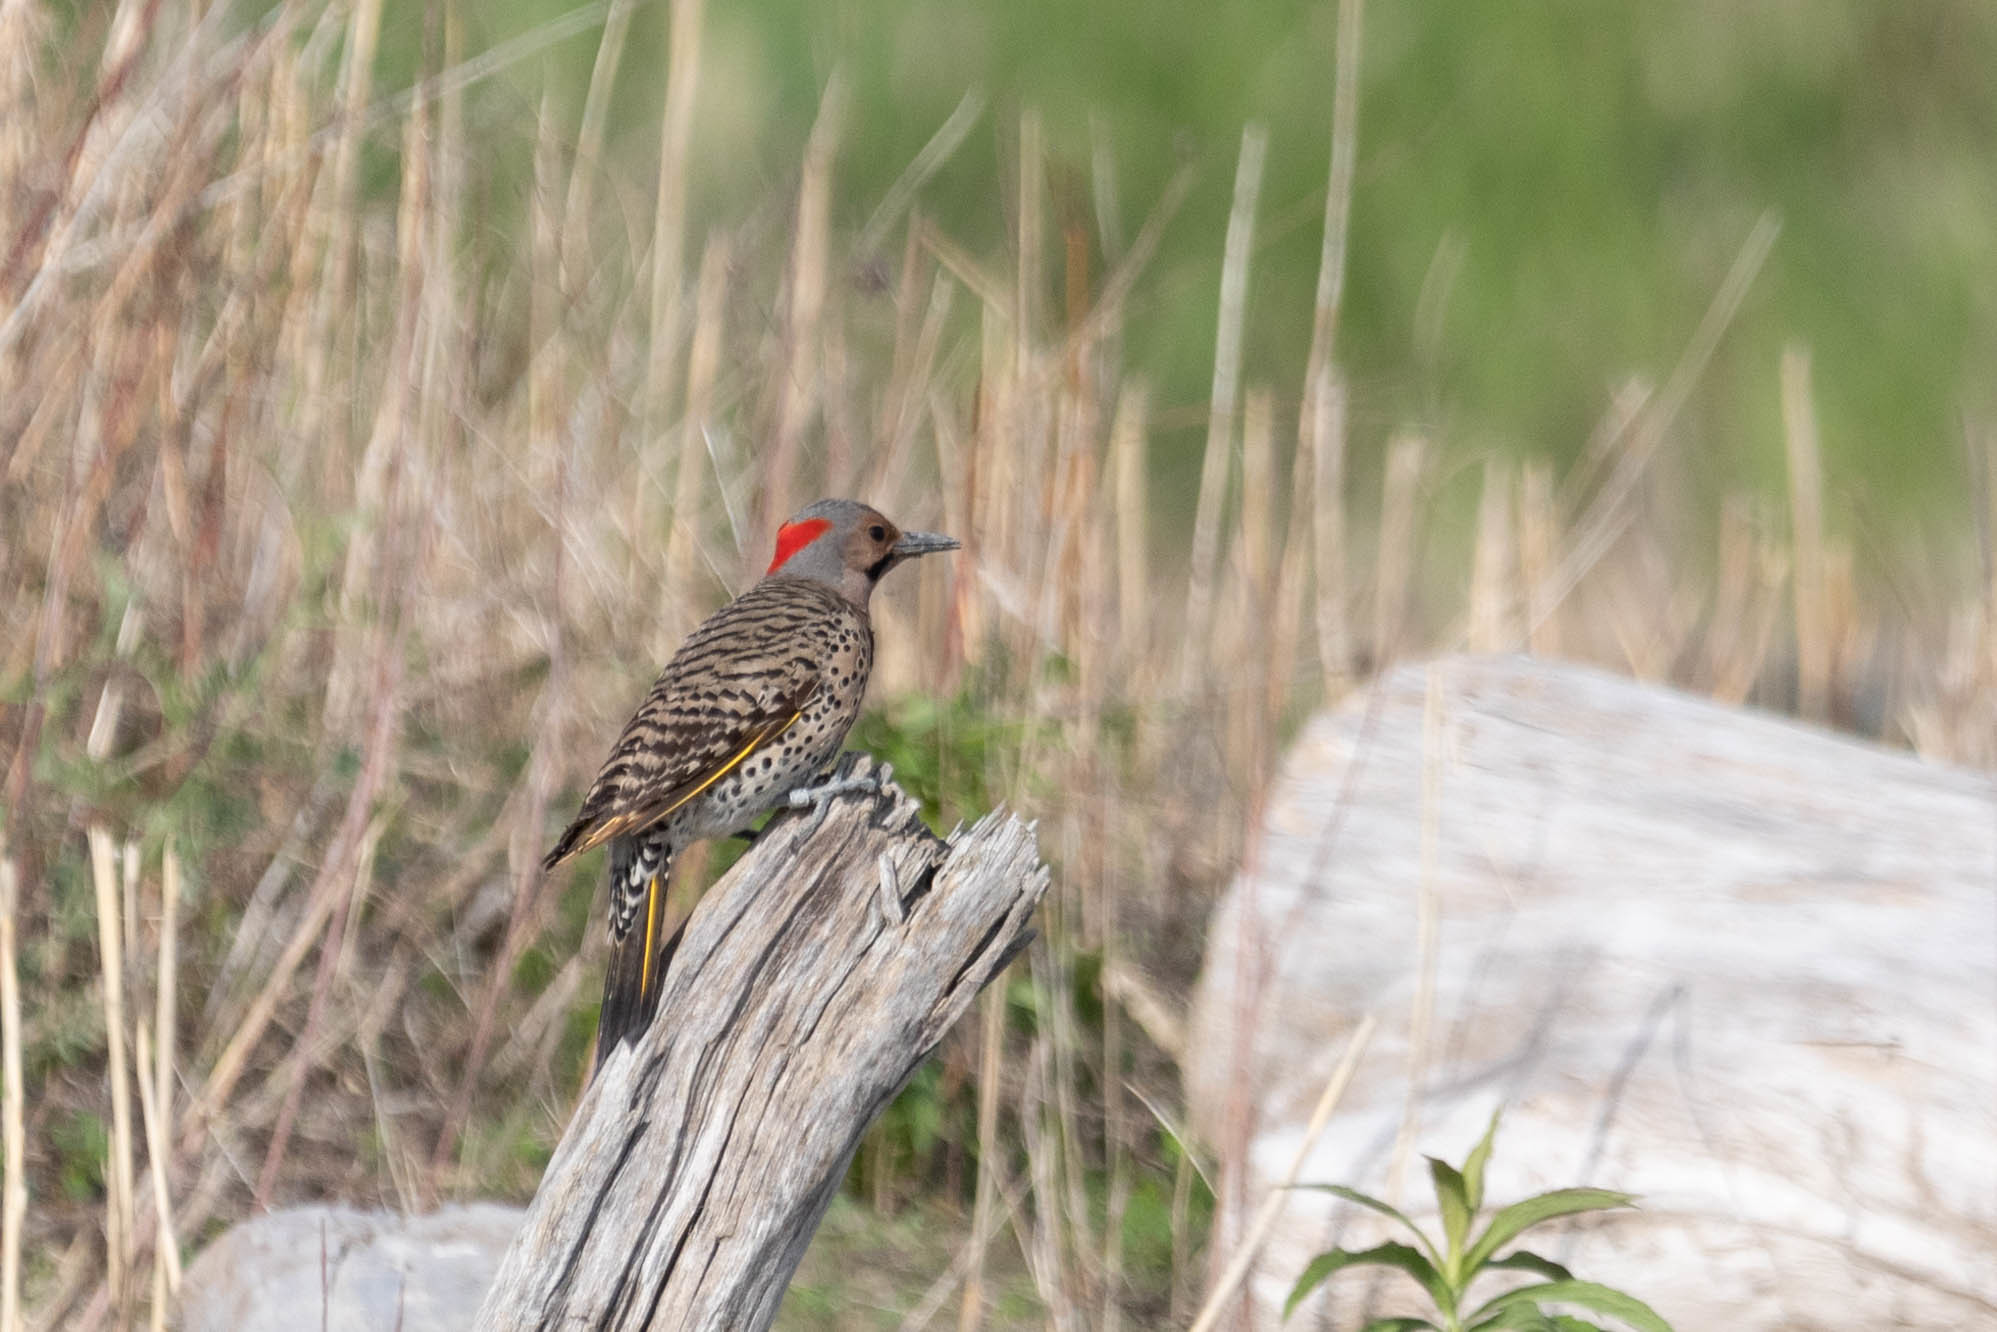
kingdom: Animalia
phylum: Chordata
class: Aves
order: Piciformes
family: Picidae
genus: Colaptes
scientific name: Colaptes auratus
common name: Northern flicker
